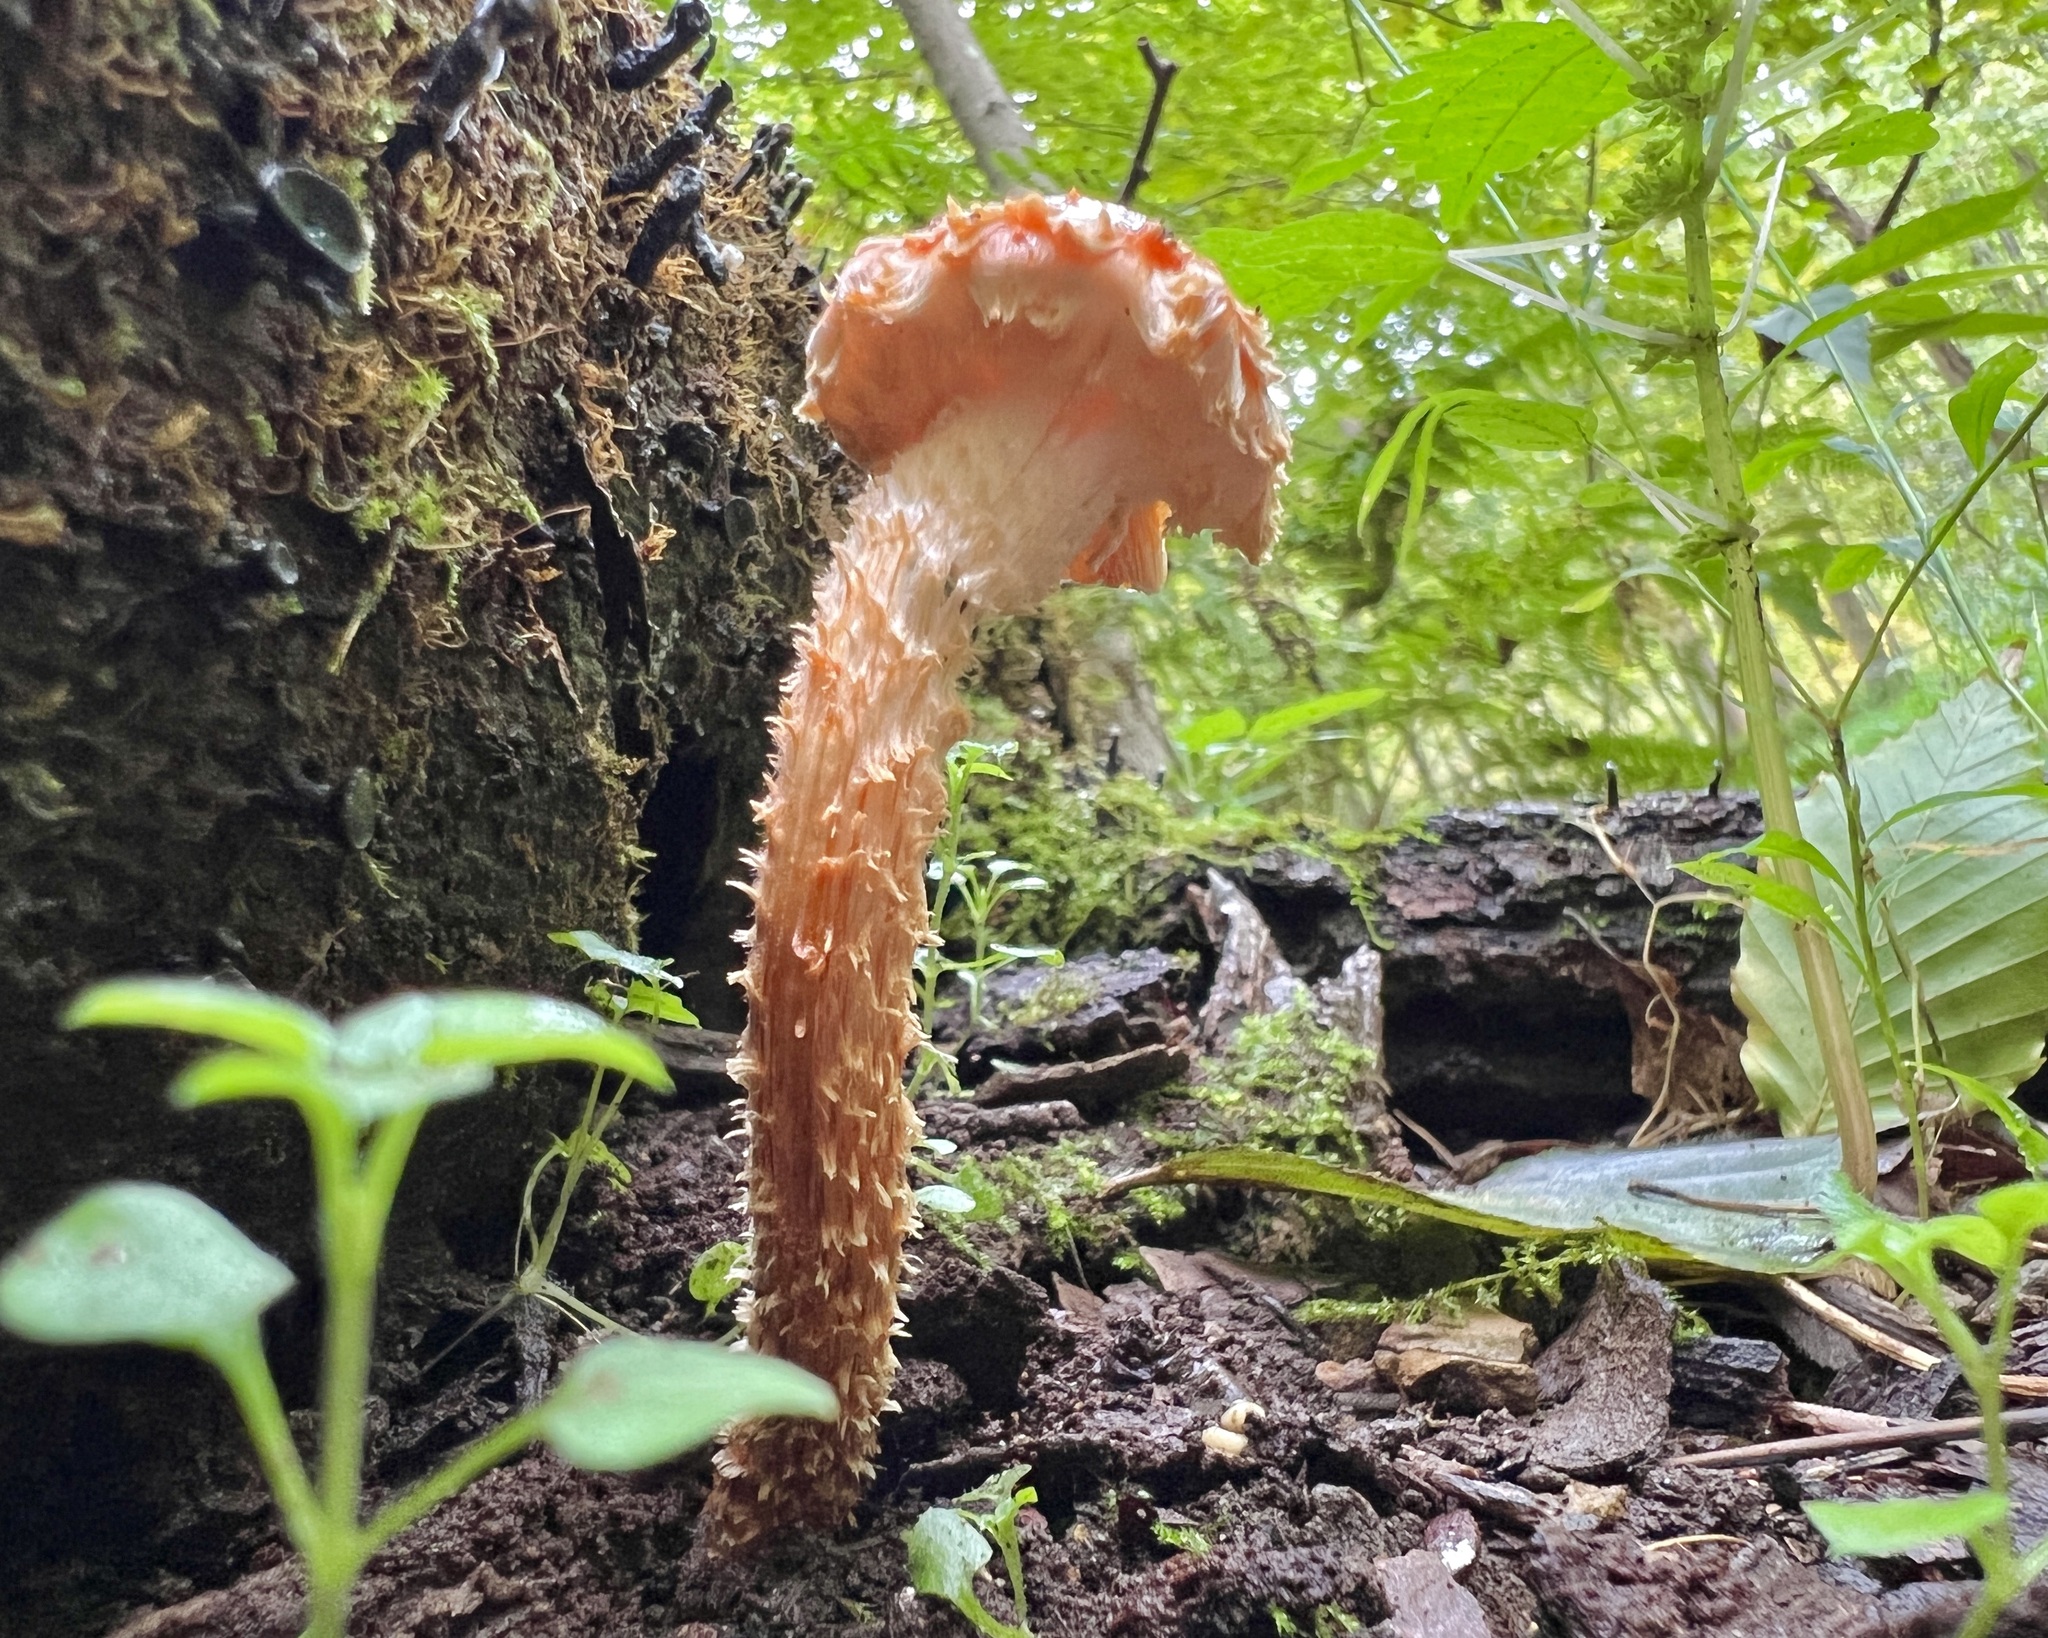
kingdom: Fungi
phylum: Basidiomycota
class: Agaricomycetes
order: Agaricales
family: Tubariaceae
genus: Hemistropharia
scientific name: Hemistropharia albocrenulata
